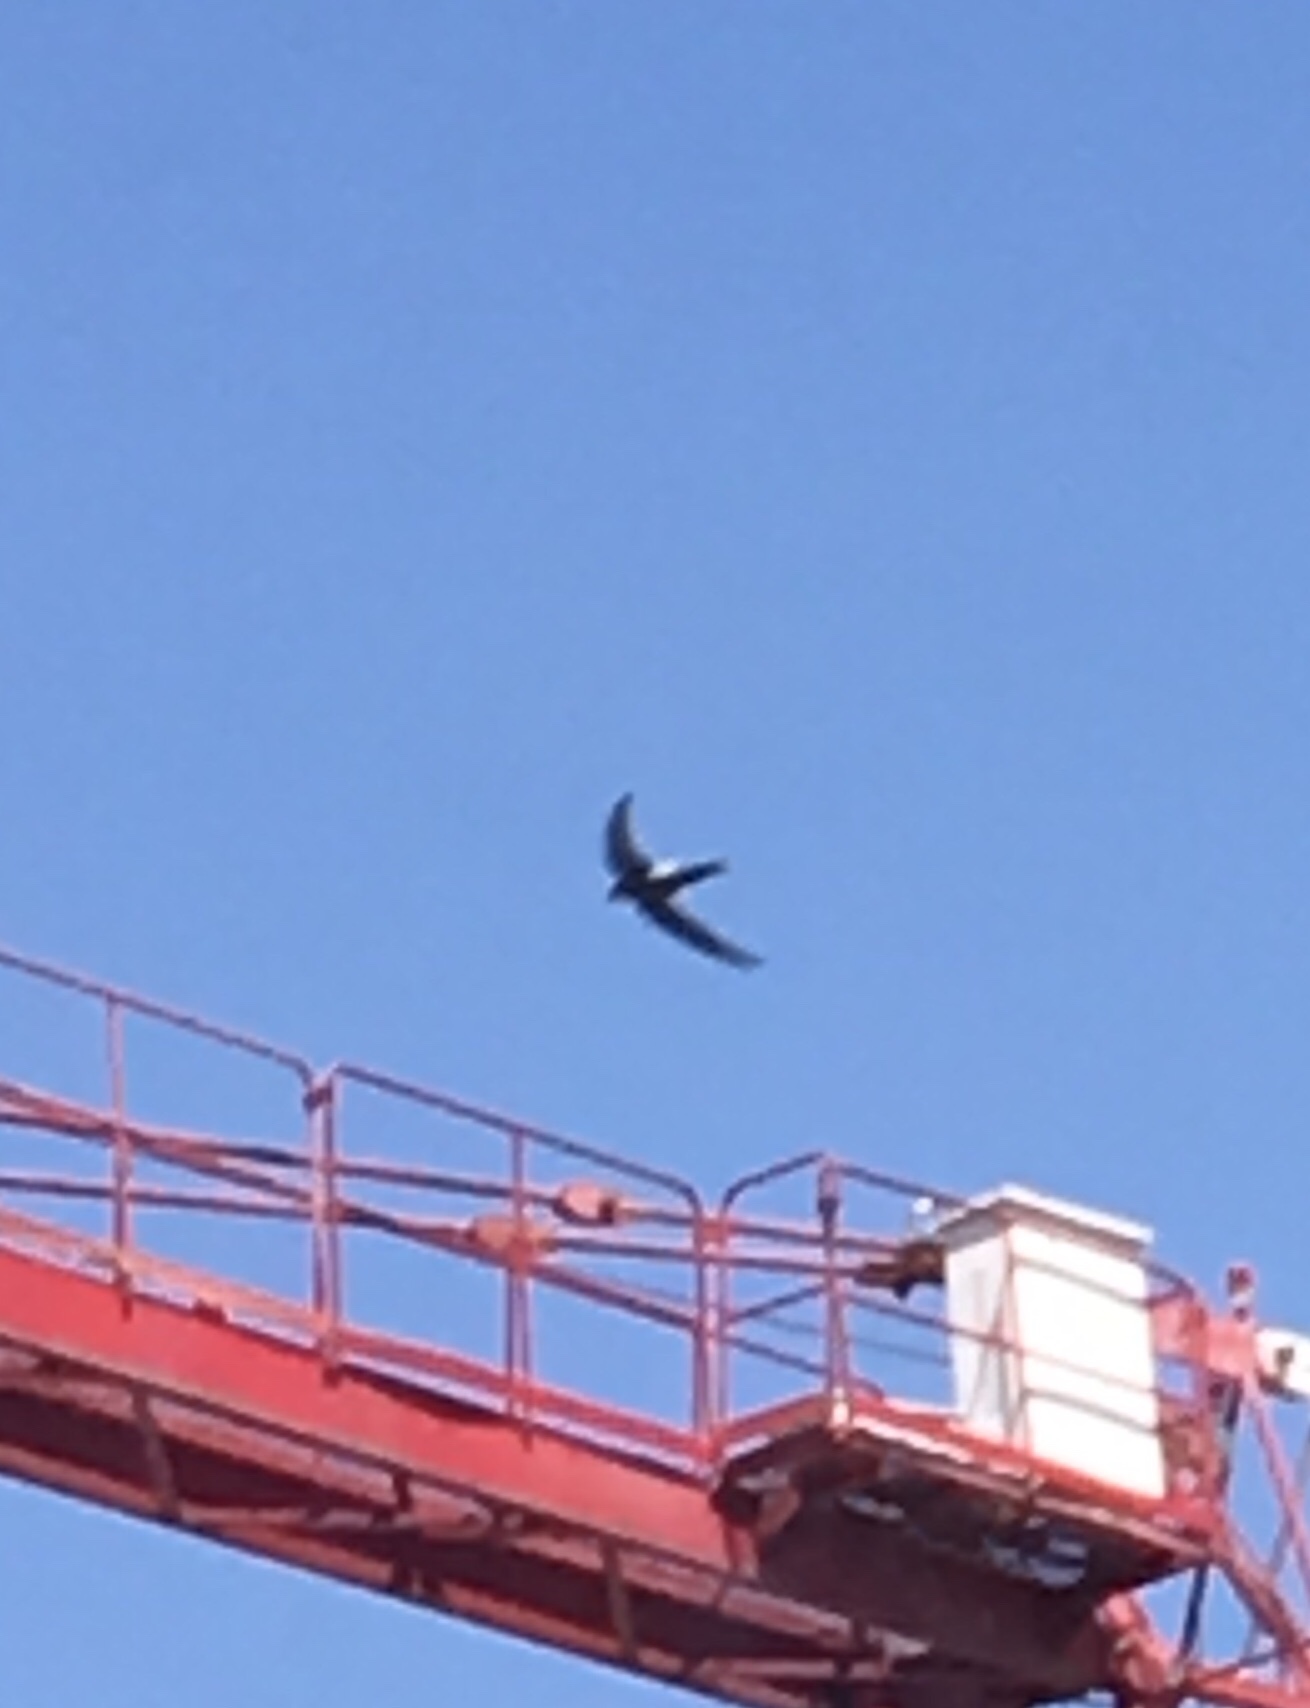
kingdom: Animalia
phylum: Chordata
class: Aves
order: Apodiformes
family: Apodidae
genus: Apus
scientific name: Apus pacificus
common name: Pacific swift
